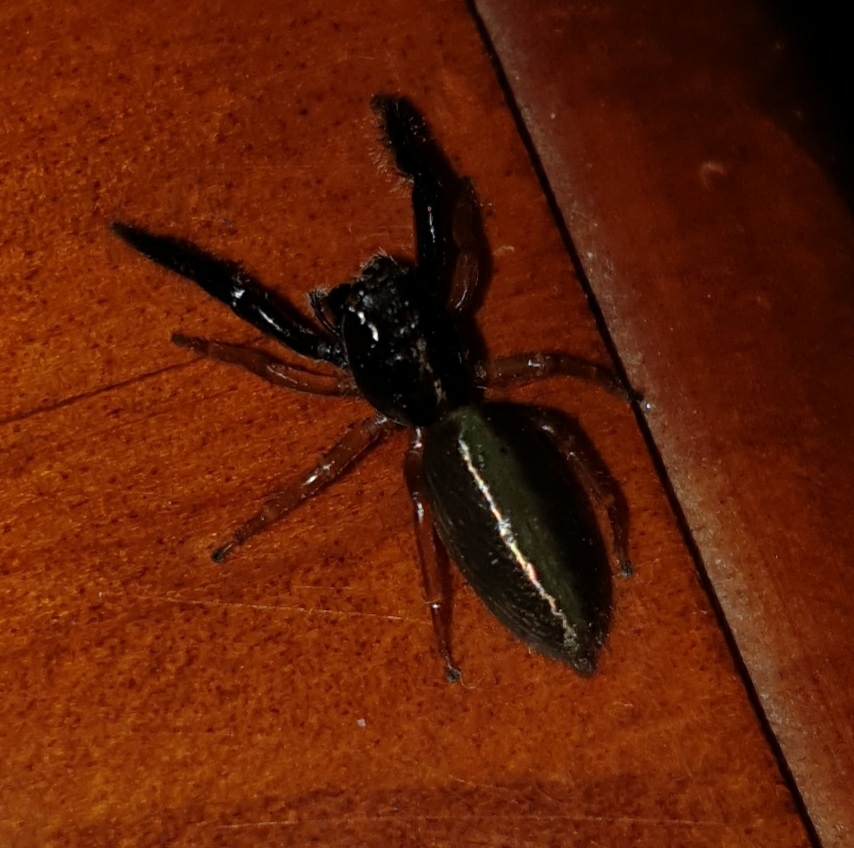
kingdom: Animalia
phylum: Arthropoda
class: Arachnida
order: Araneae
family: Salticidae
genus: Trite
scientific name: Trite planiceps
